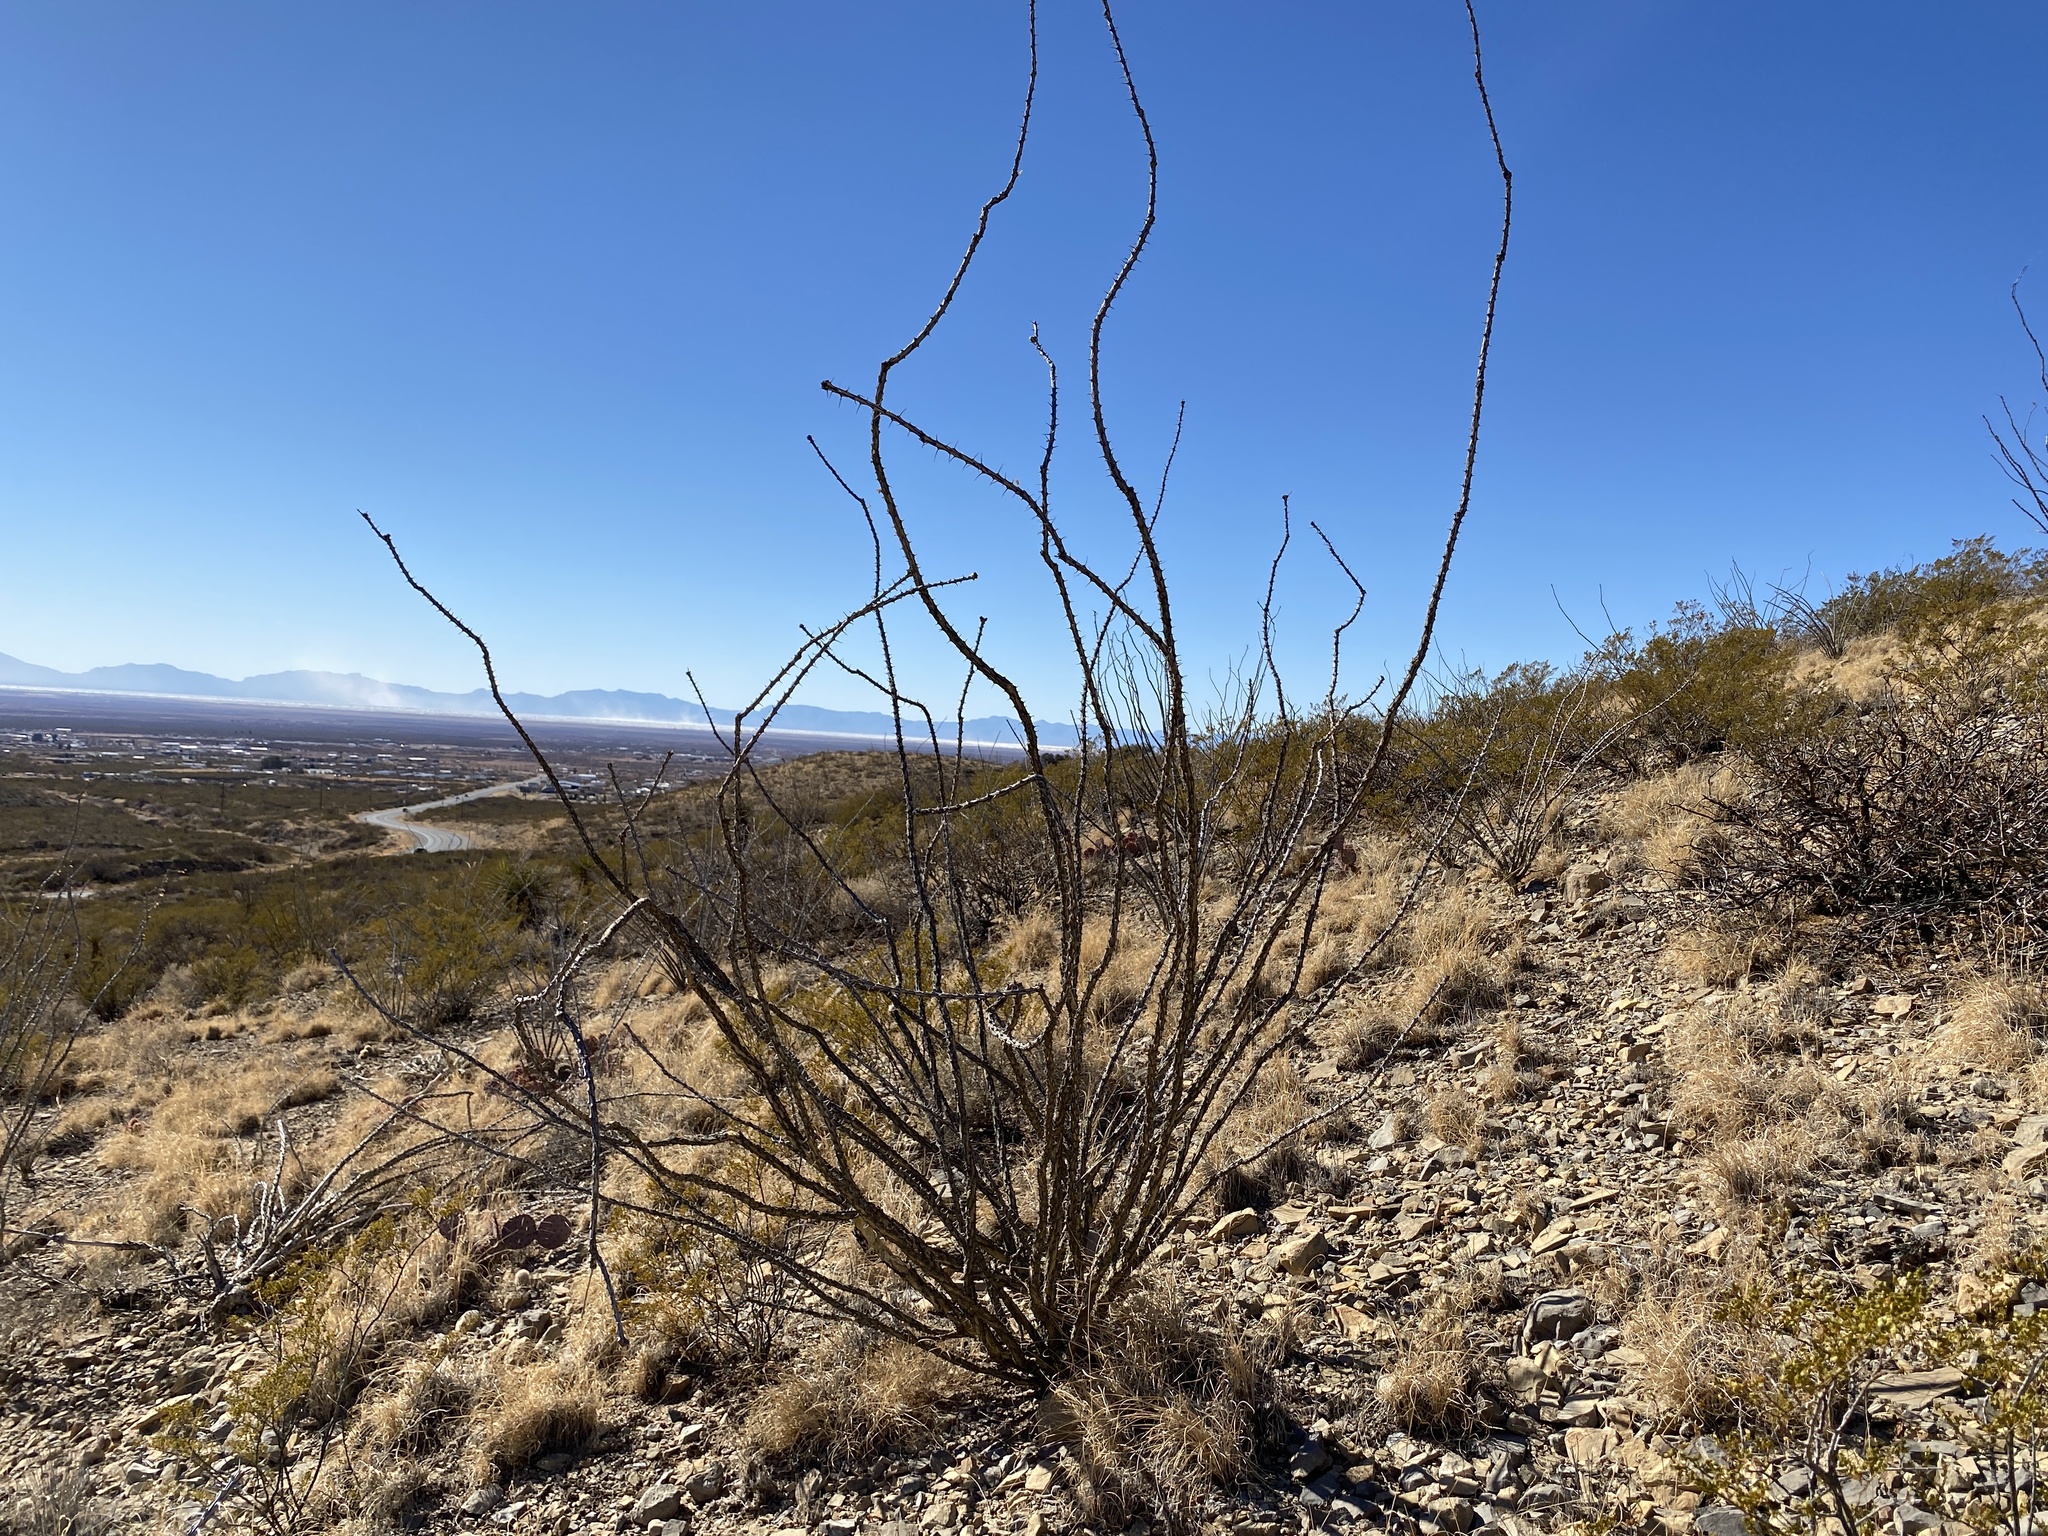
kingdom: Plantae
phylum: Tracheophyta
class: Magnoliopsida
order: Ericales
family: Fouquieriaceae
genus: Fouquieria
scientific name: Fouquieria splendens
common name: Vine-cactus
